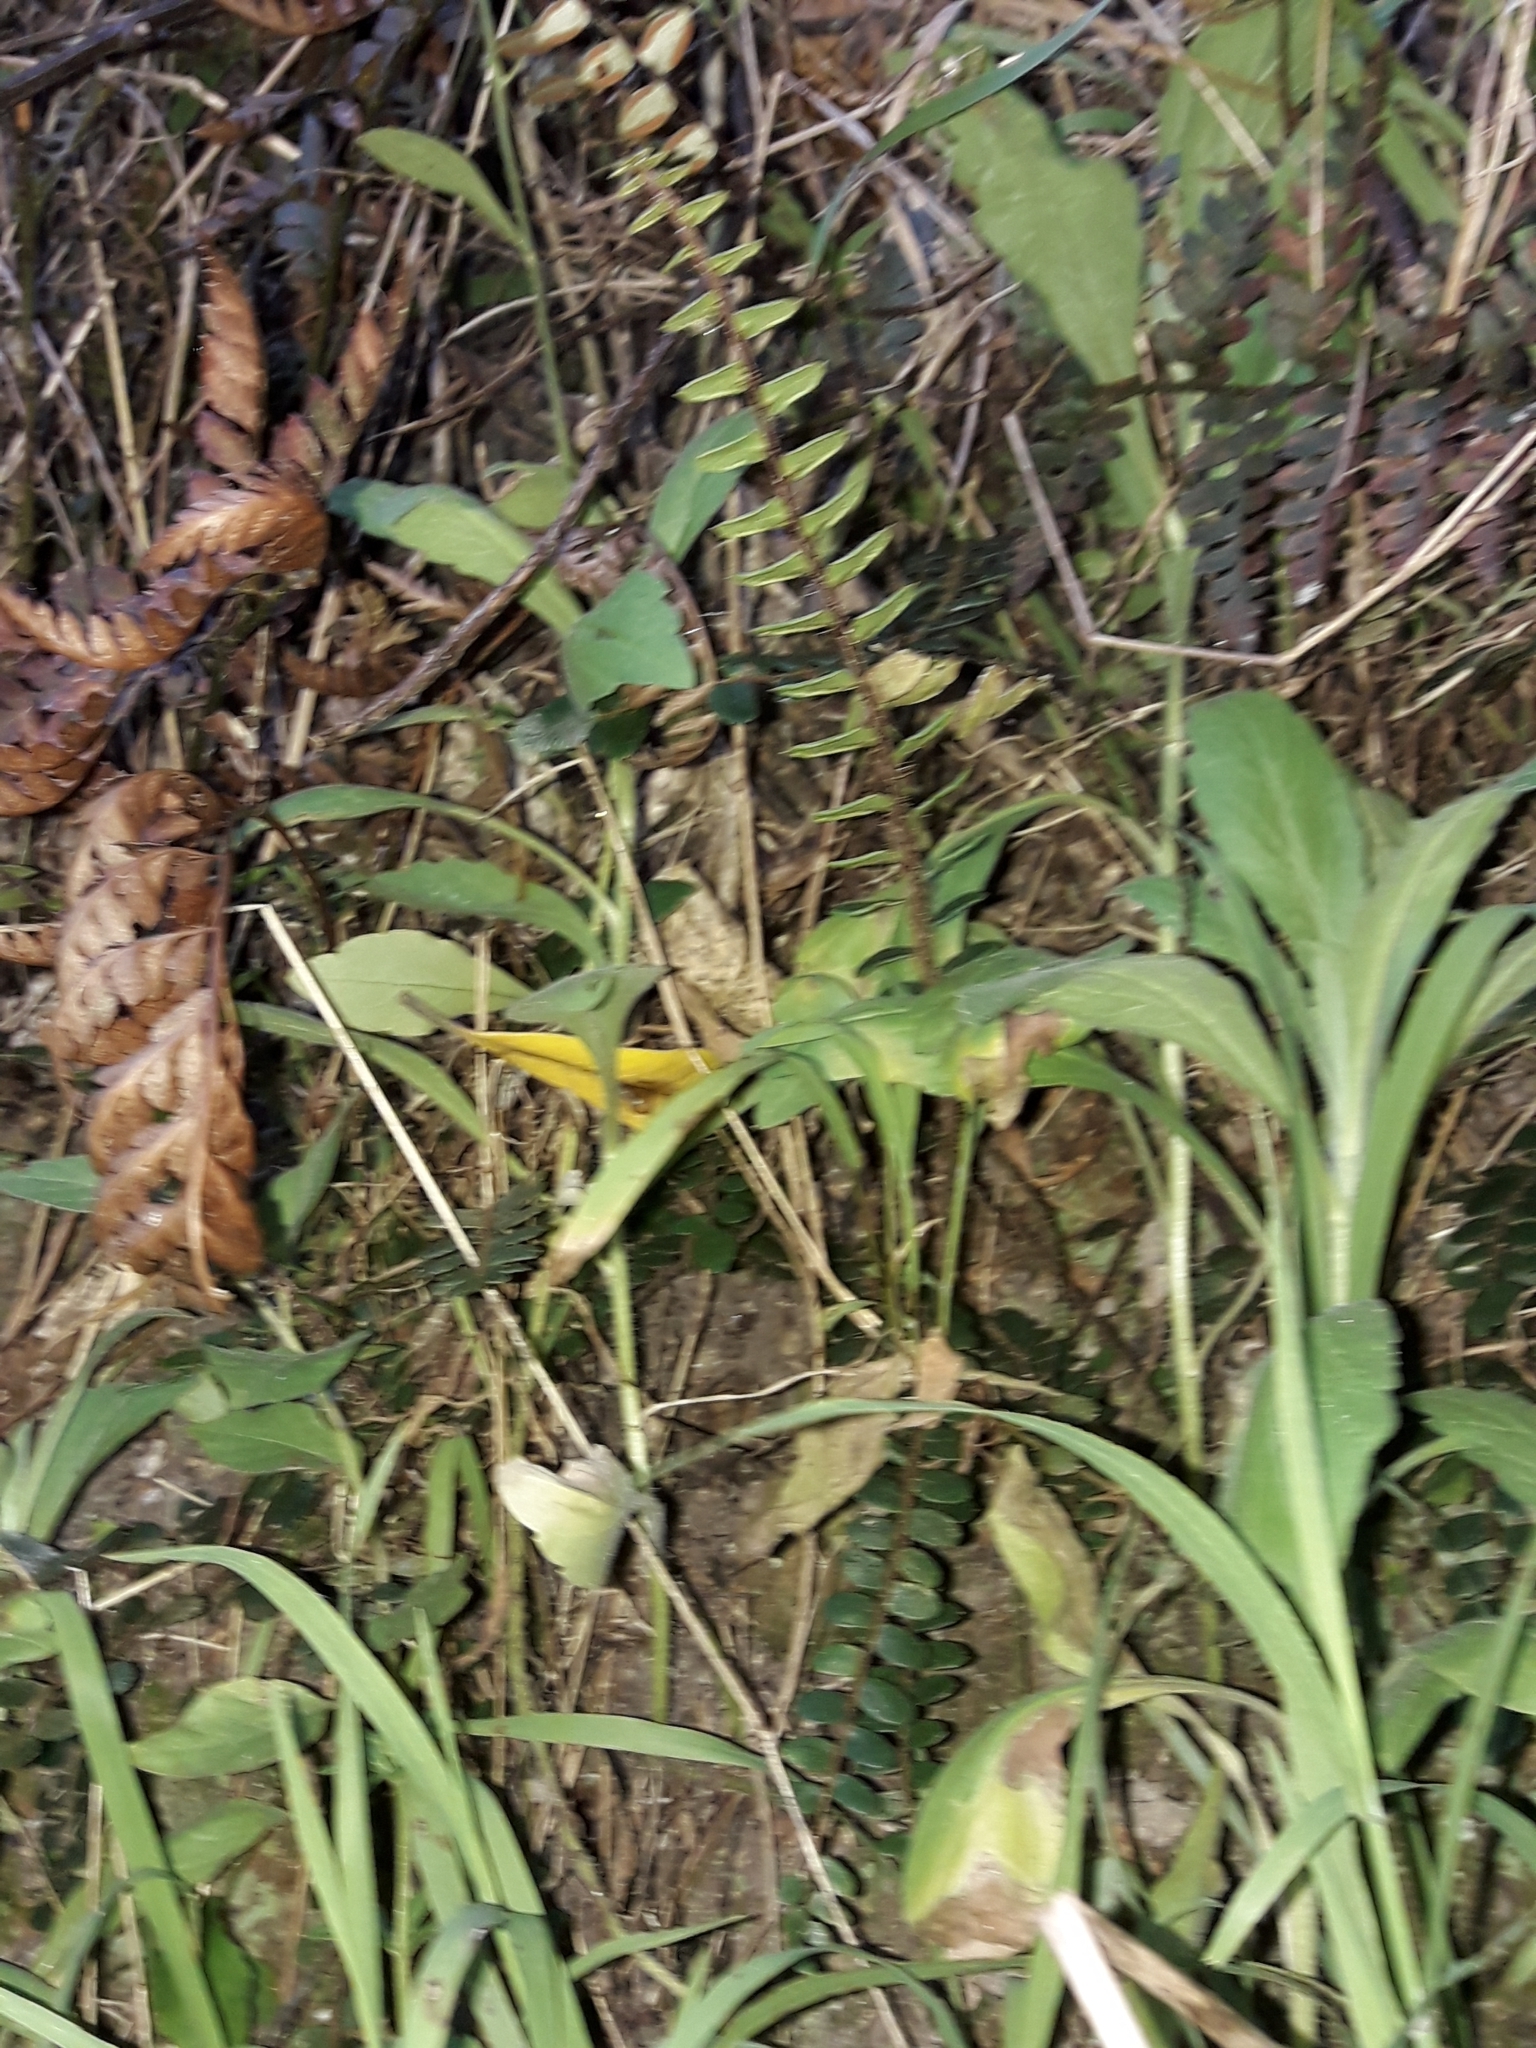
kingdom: Plantae
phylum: Tracheophyta
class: Polypodiopsida
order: Polypodiales
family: Pteridaceae
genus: Pellaea
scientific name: Pellaea rotundifolia
